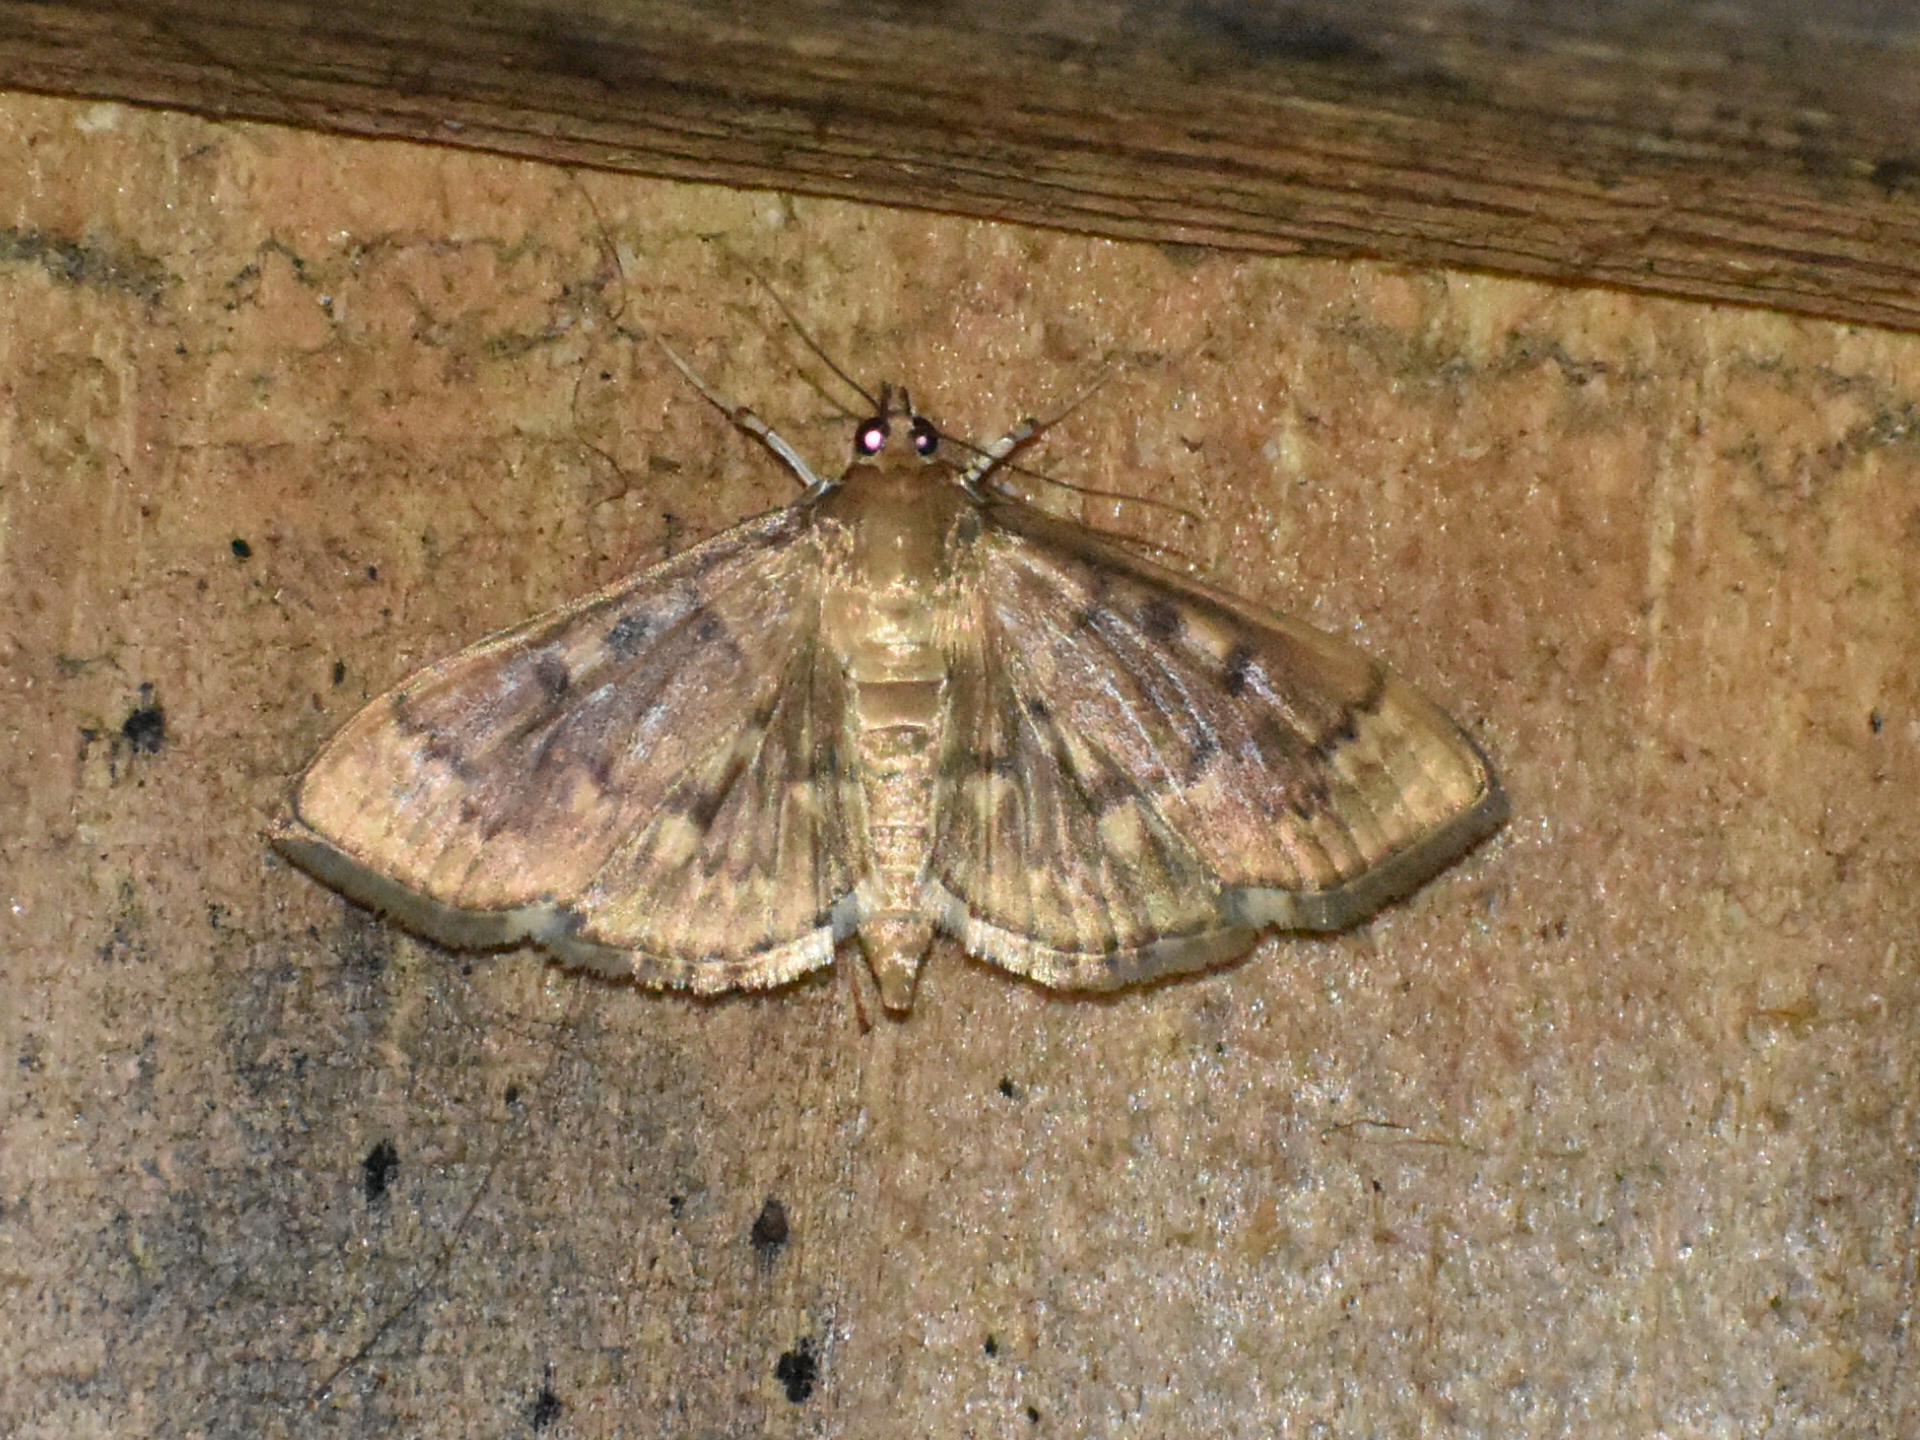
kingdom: Animalia
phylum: Arthropoda
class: Insecta
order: Lepidoptera
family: Crambidae
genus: Herpetogramma
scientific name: Herpetogramma aeglealis
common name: Serpentine webworm moth
